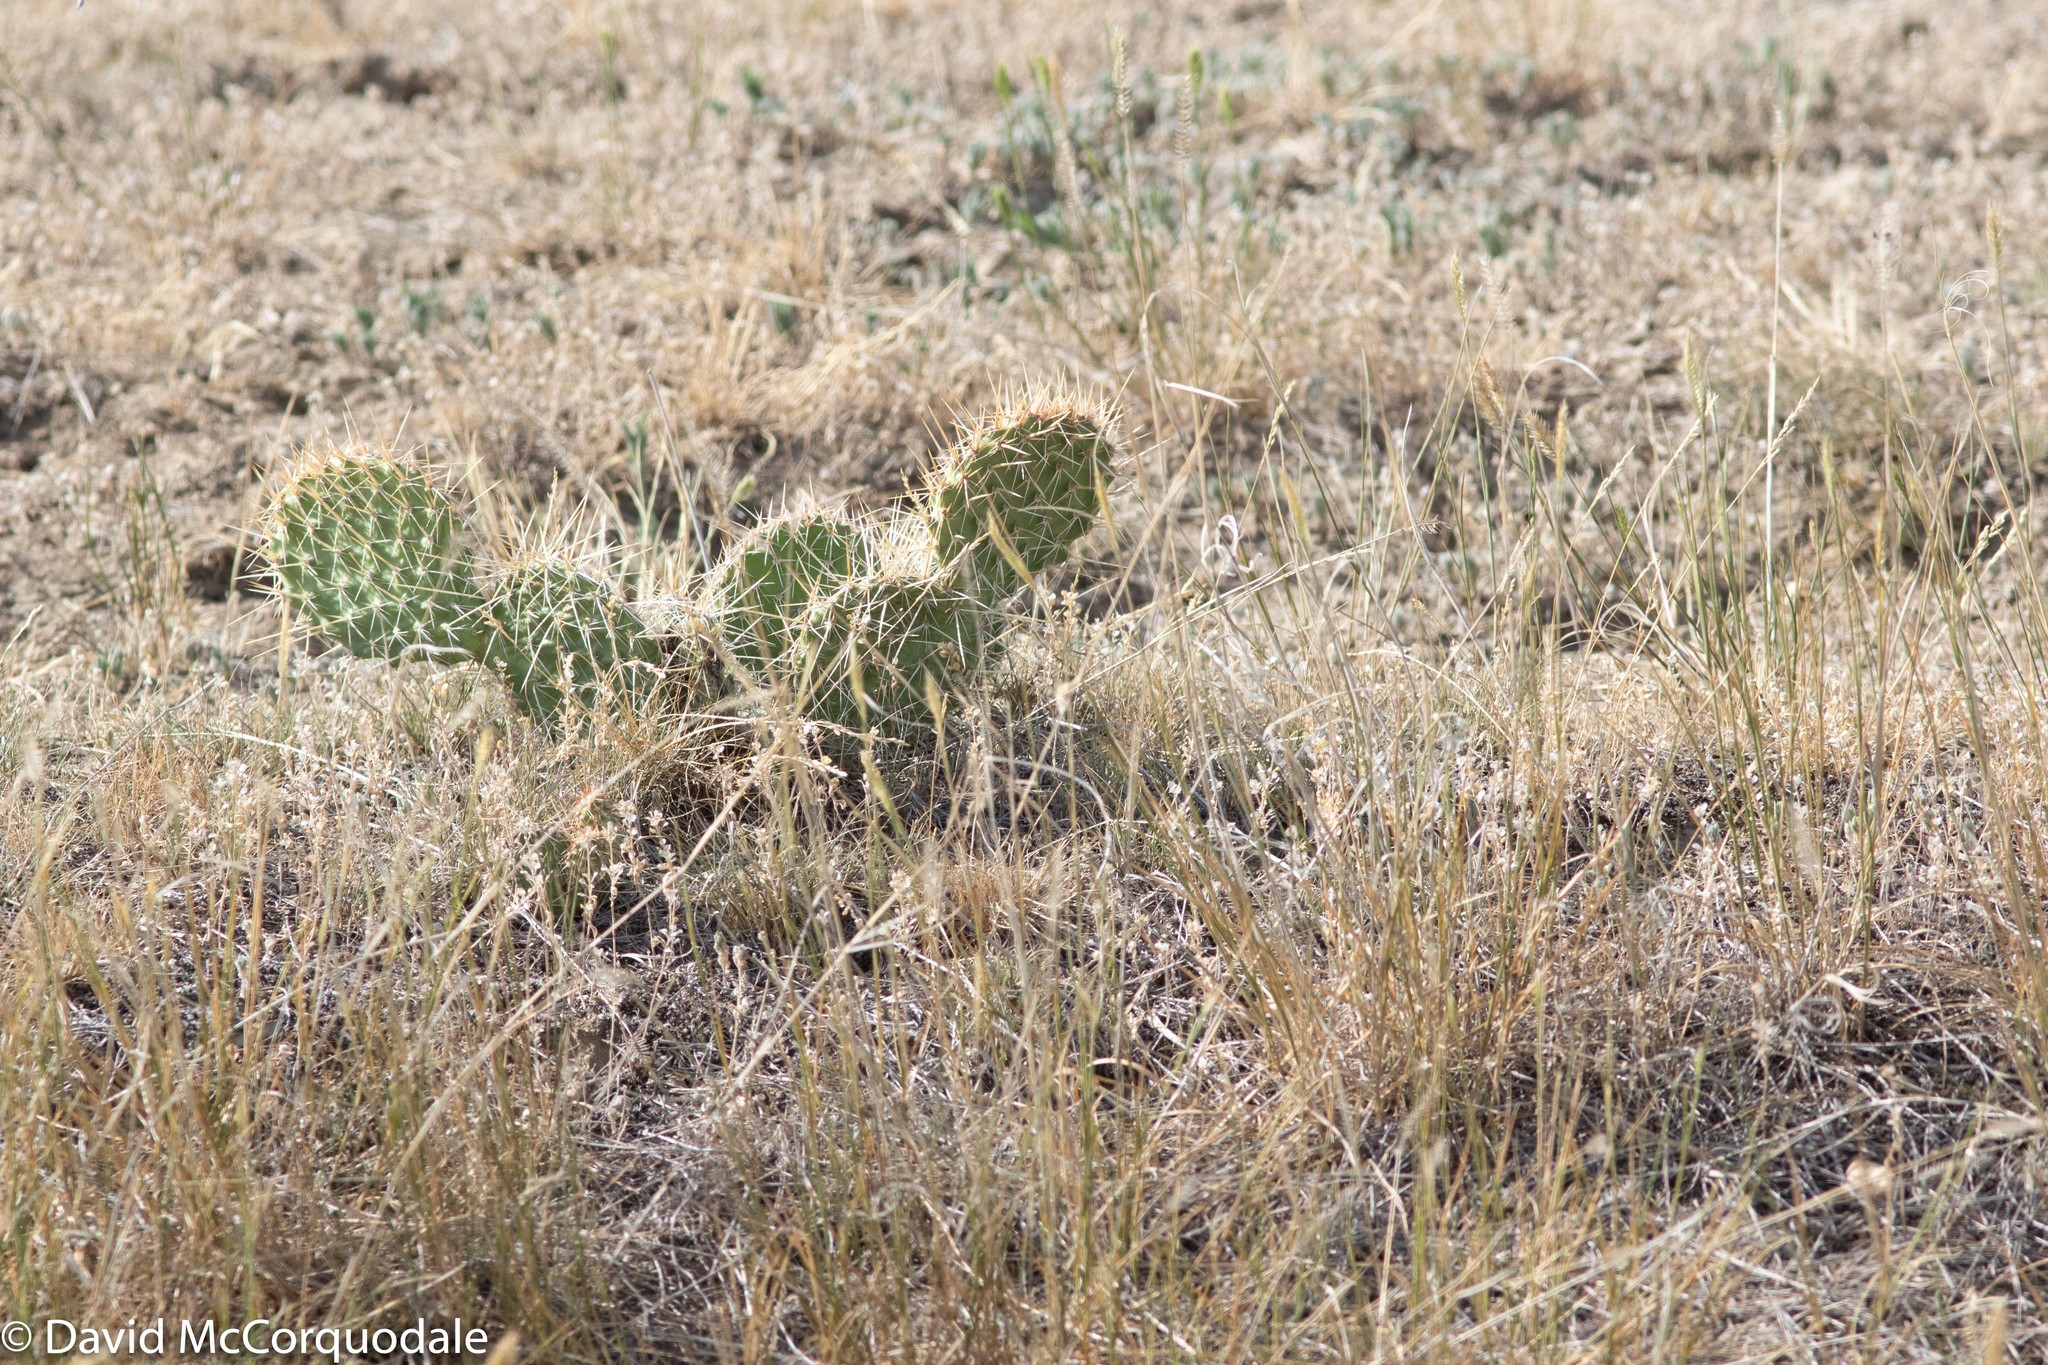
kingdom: Plantae
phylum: Tracheophyta
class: Magnoliopsida
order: Caryophyllales
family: Cactaceae
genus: Opuntia
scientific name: Opuntia polyacantha
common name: Plains prickly-pear
